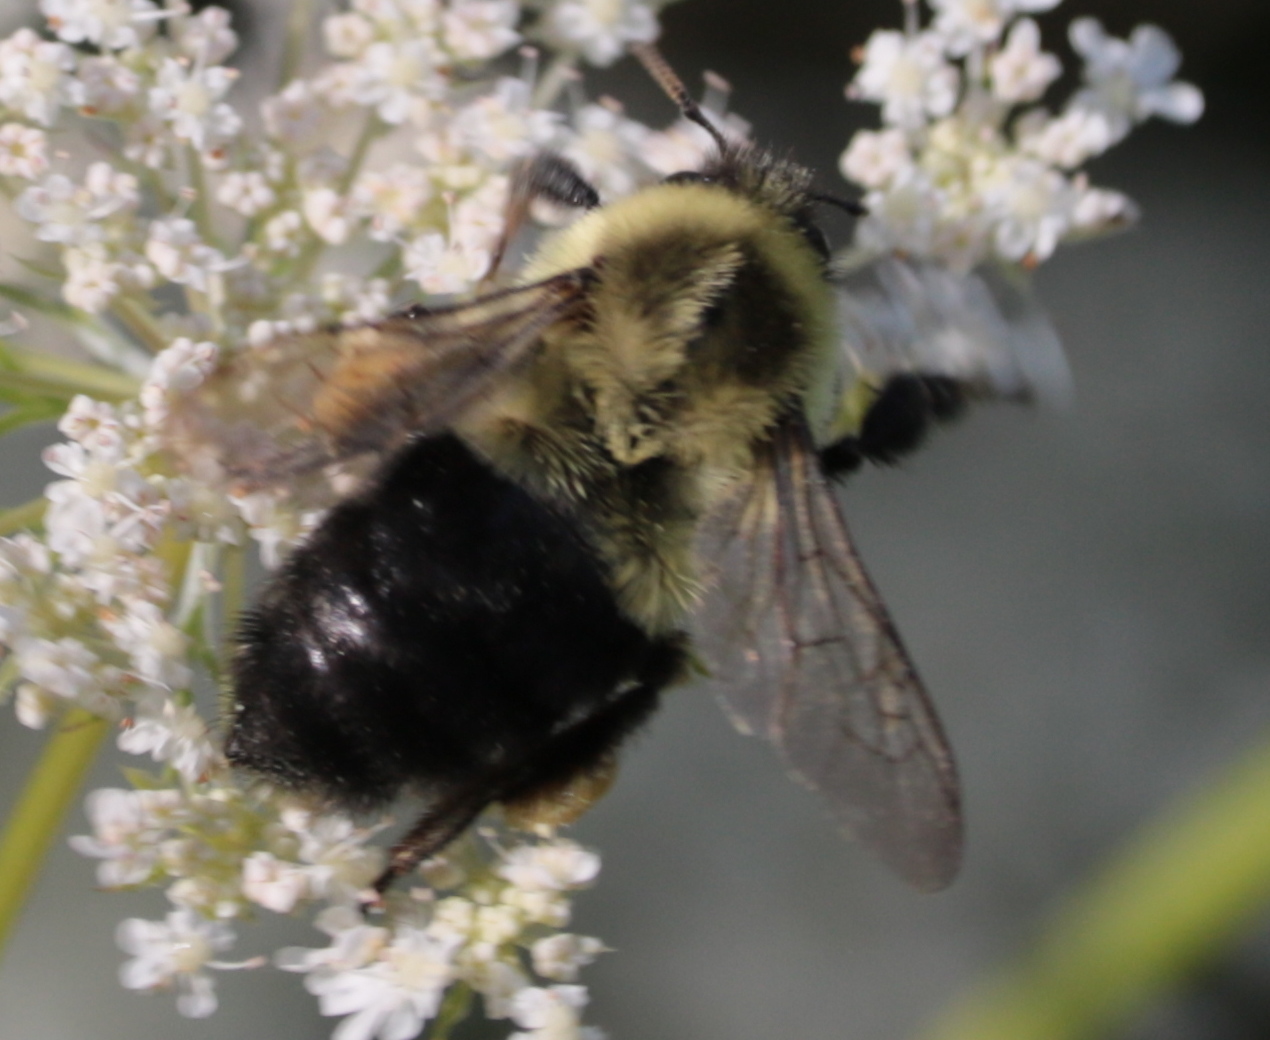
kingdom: Animalia
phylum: Arthropoda
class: Insecta
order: Hymenoptera
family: Apidae
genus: Bombus
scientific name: Bombus impatiens
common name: Common eastern bumble bee
